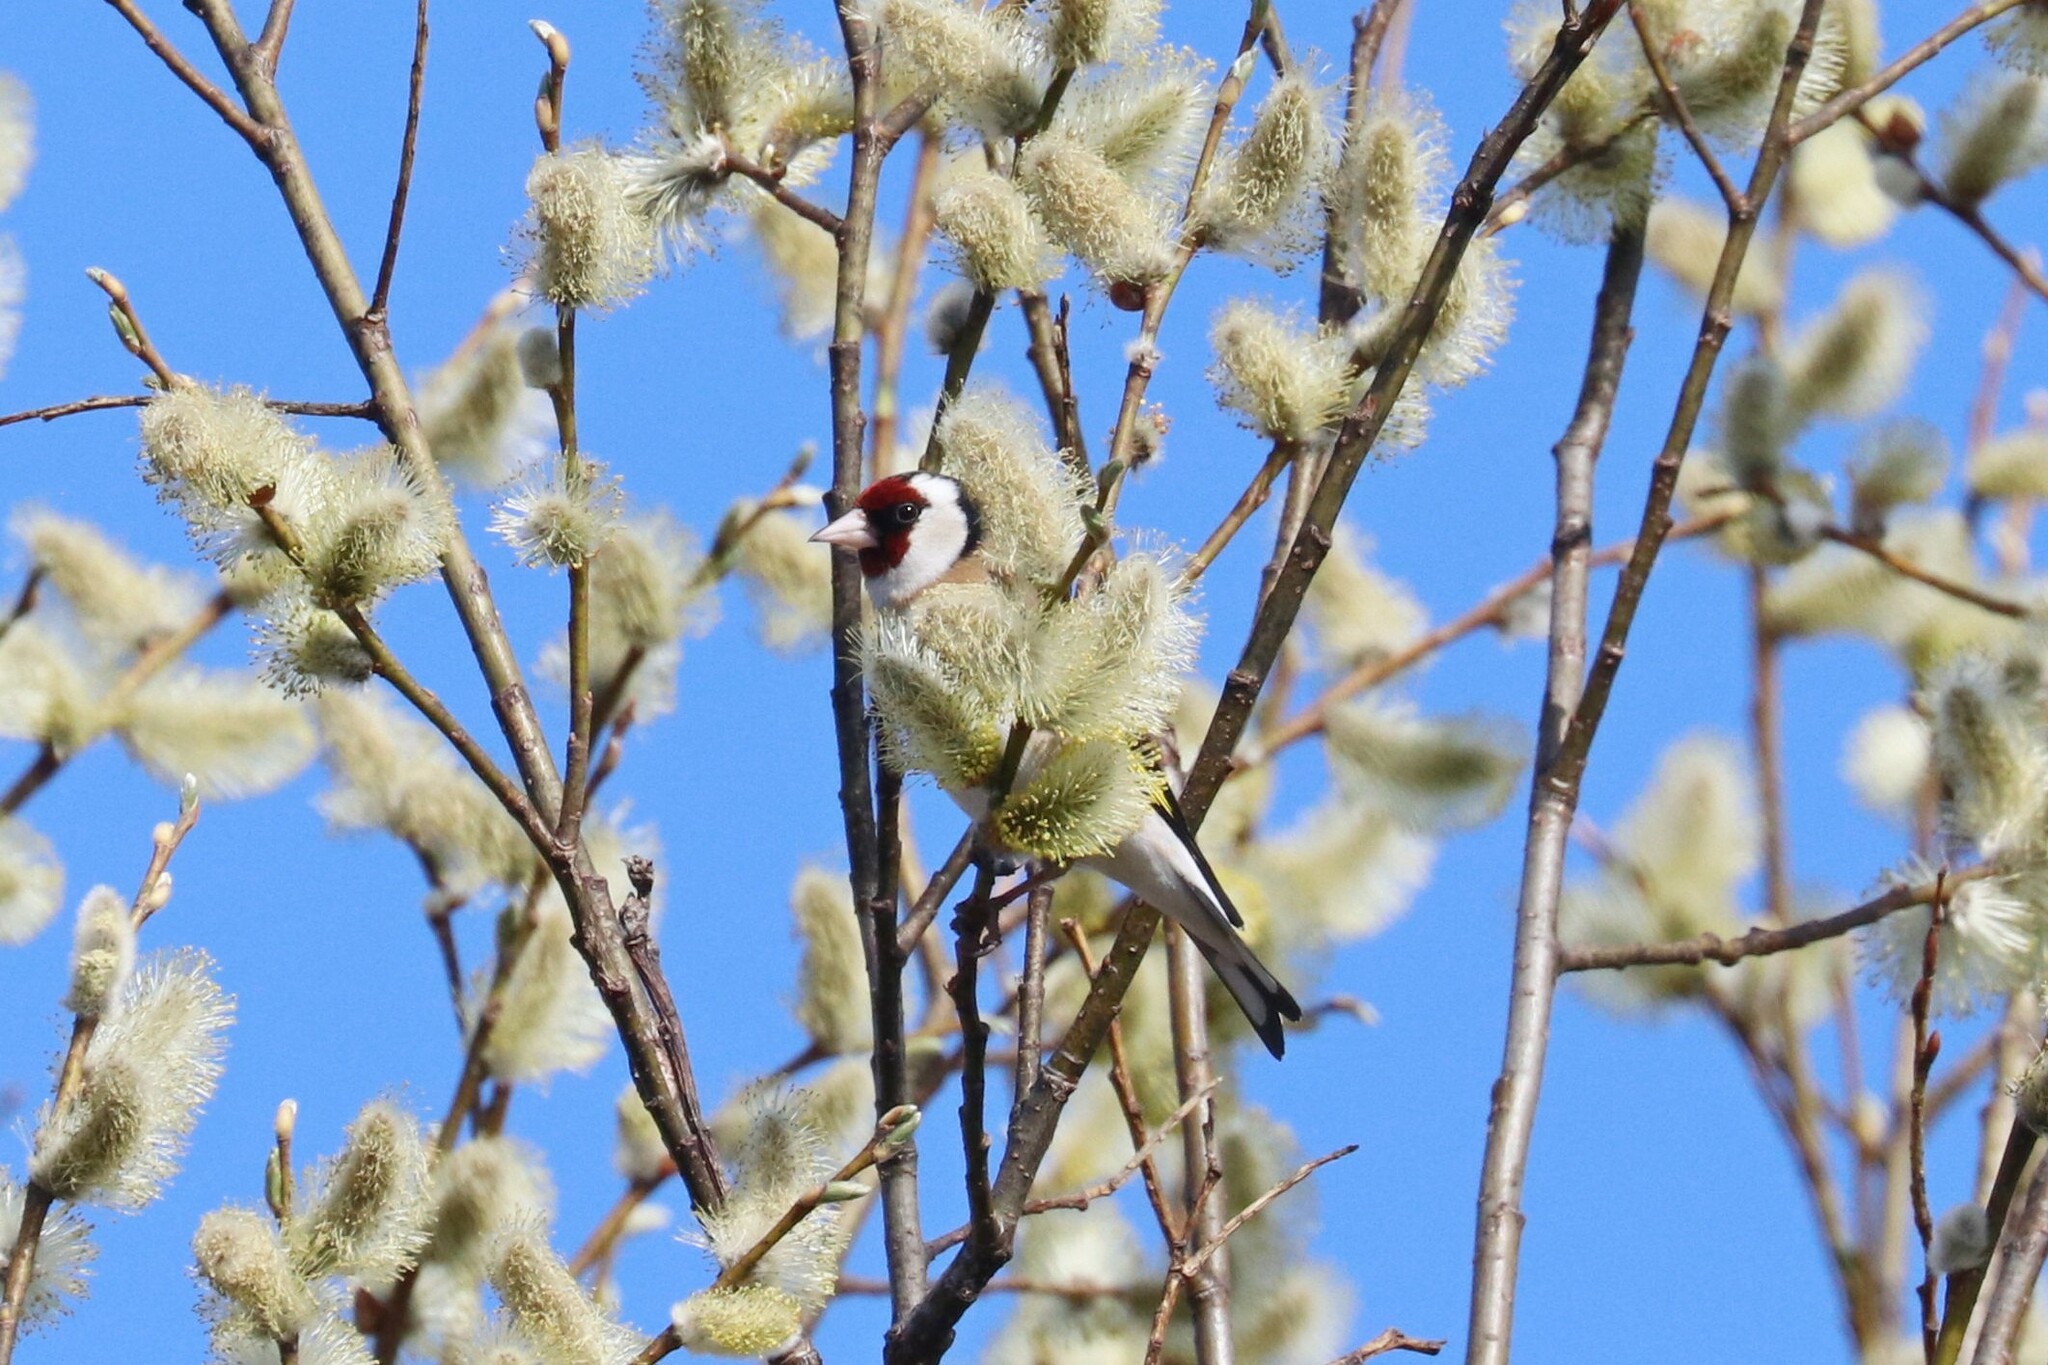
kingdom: Animalia
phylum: Chordata
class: Aves
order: Passeriformes
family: Fringillidae
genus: Carduelis
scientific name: Carduelis carduelis
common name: European goldfinch
